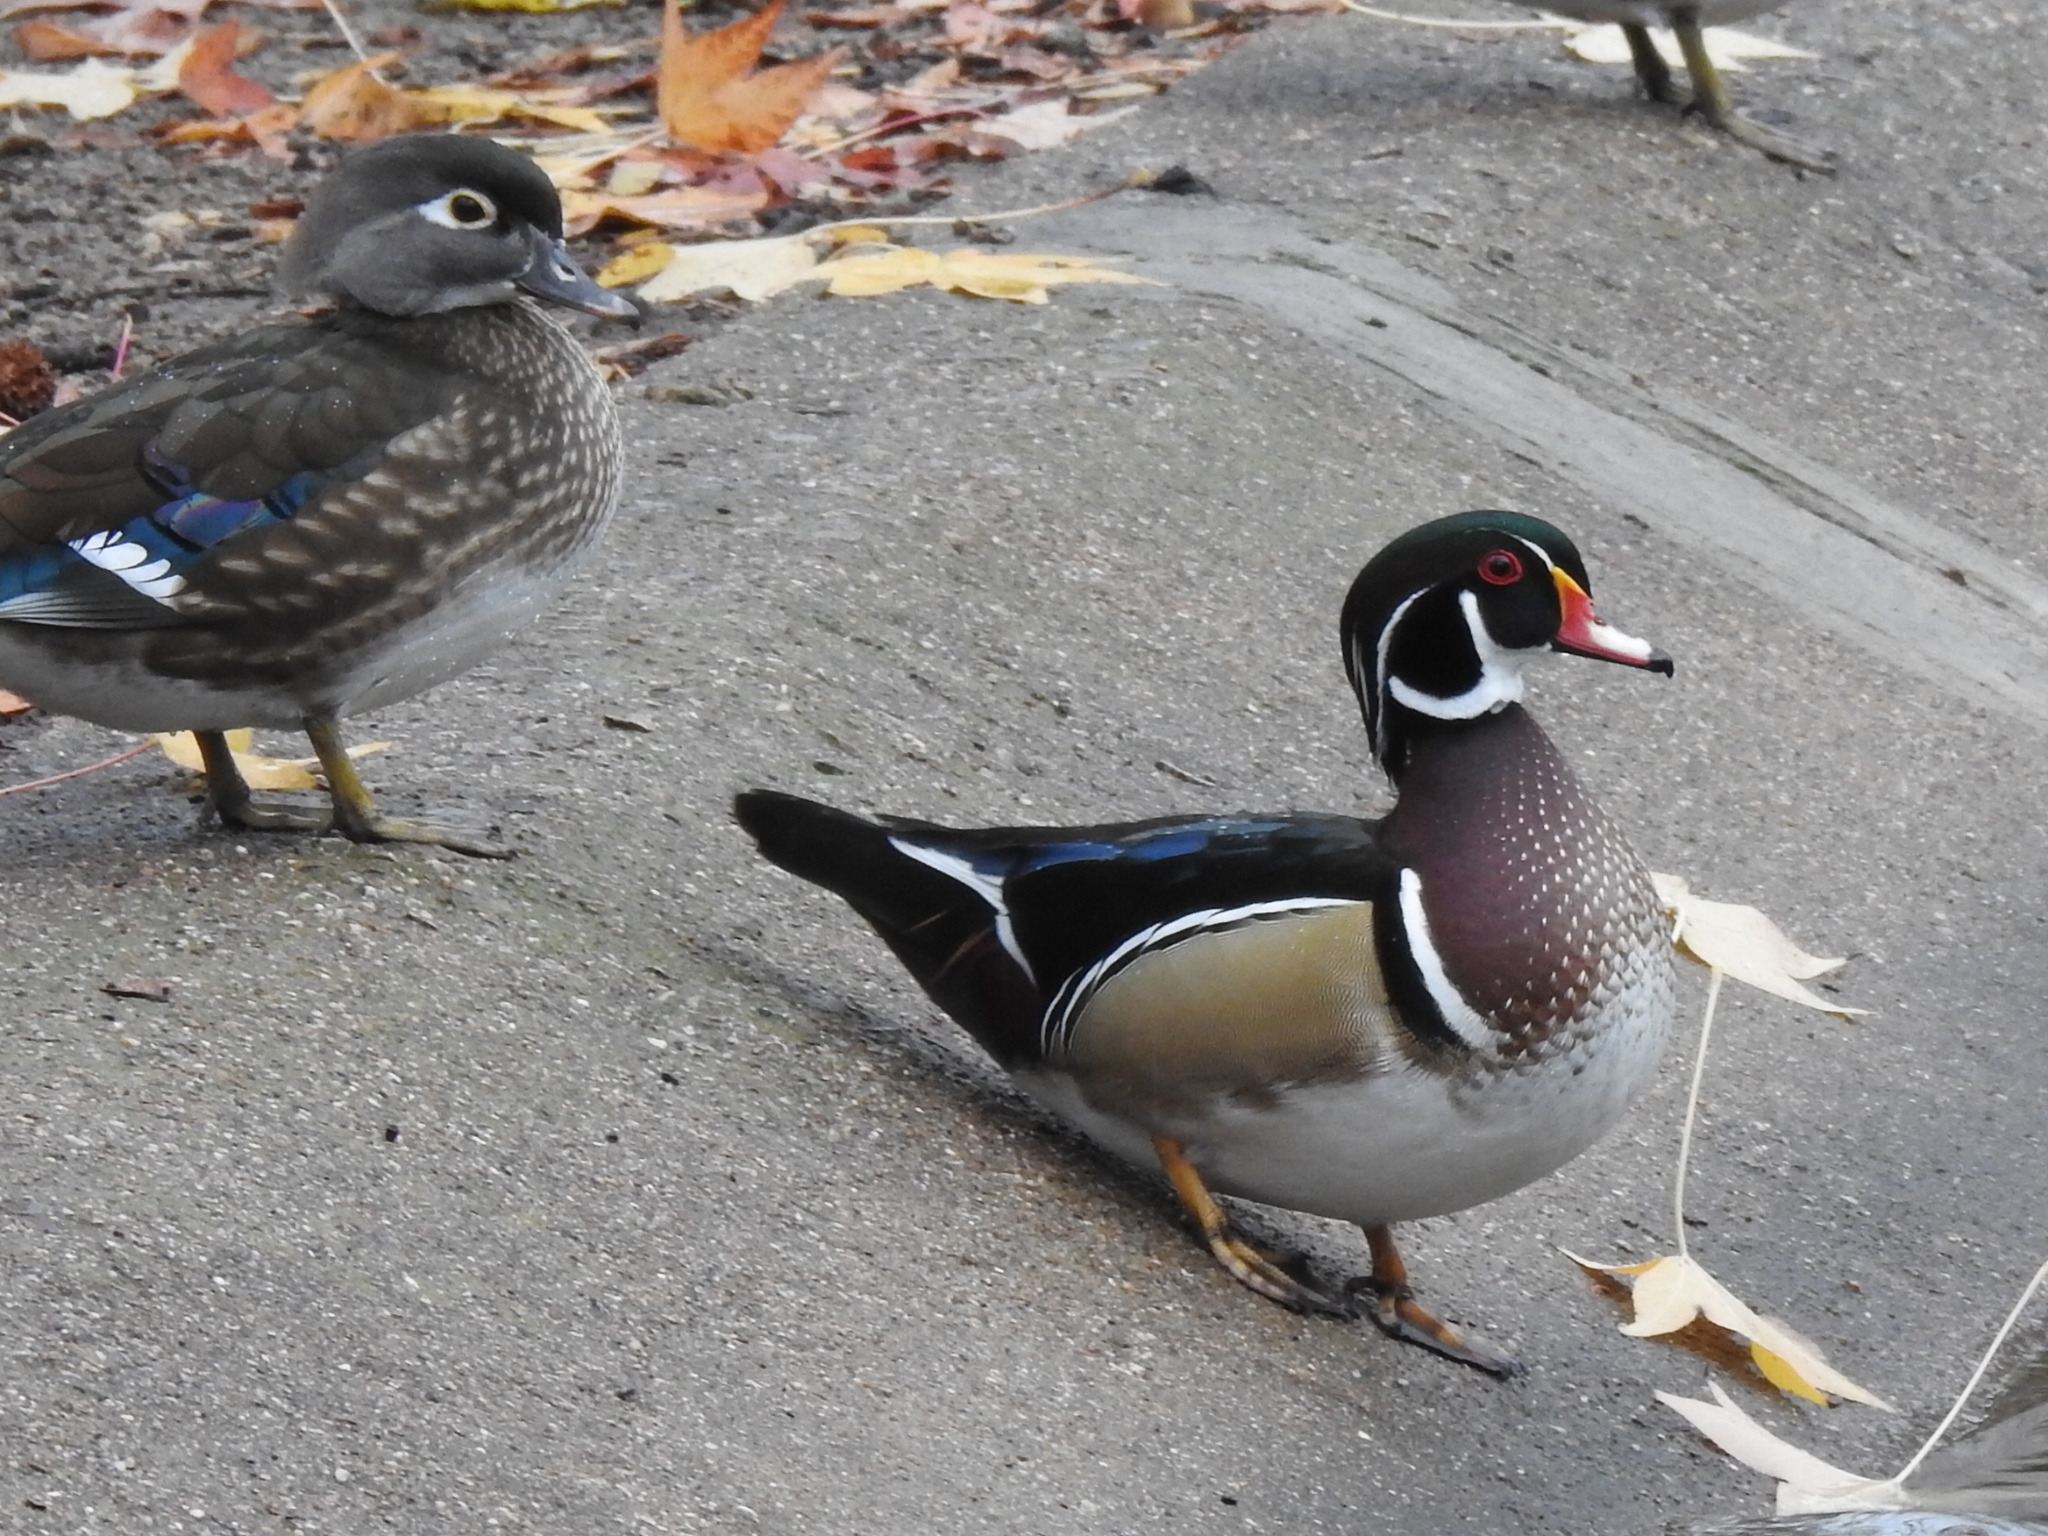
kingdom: Animalia
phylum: Chordata
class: Aves
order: Anseriformes
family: Anatidae
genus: Aix
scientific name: Aix sponsa
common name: Wood duck
